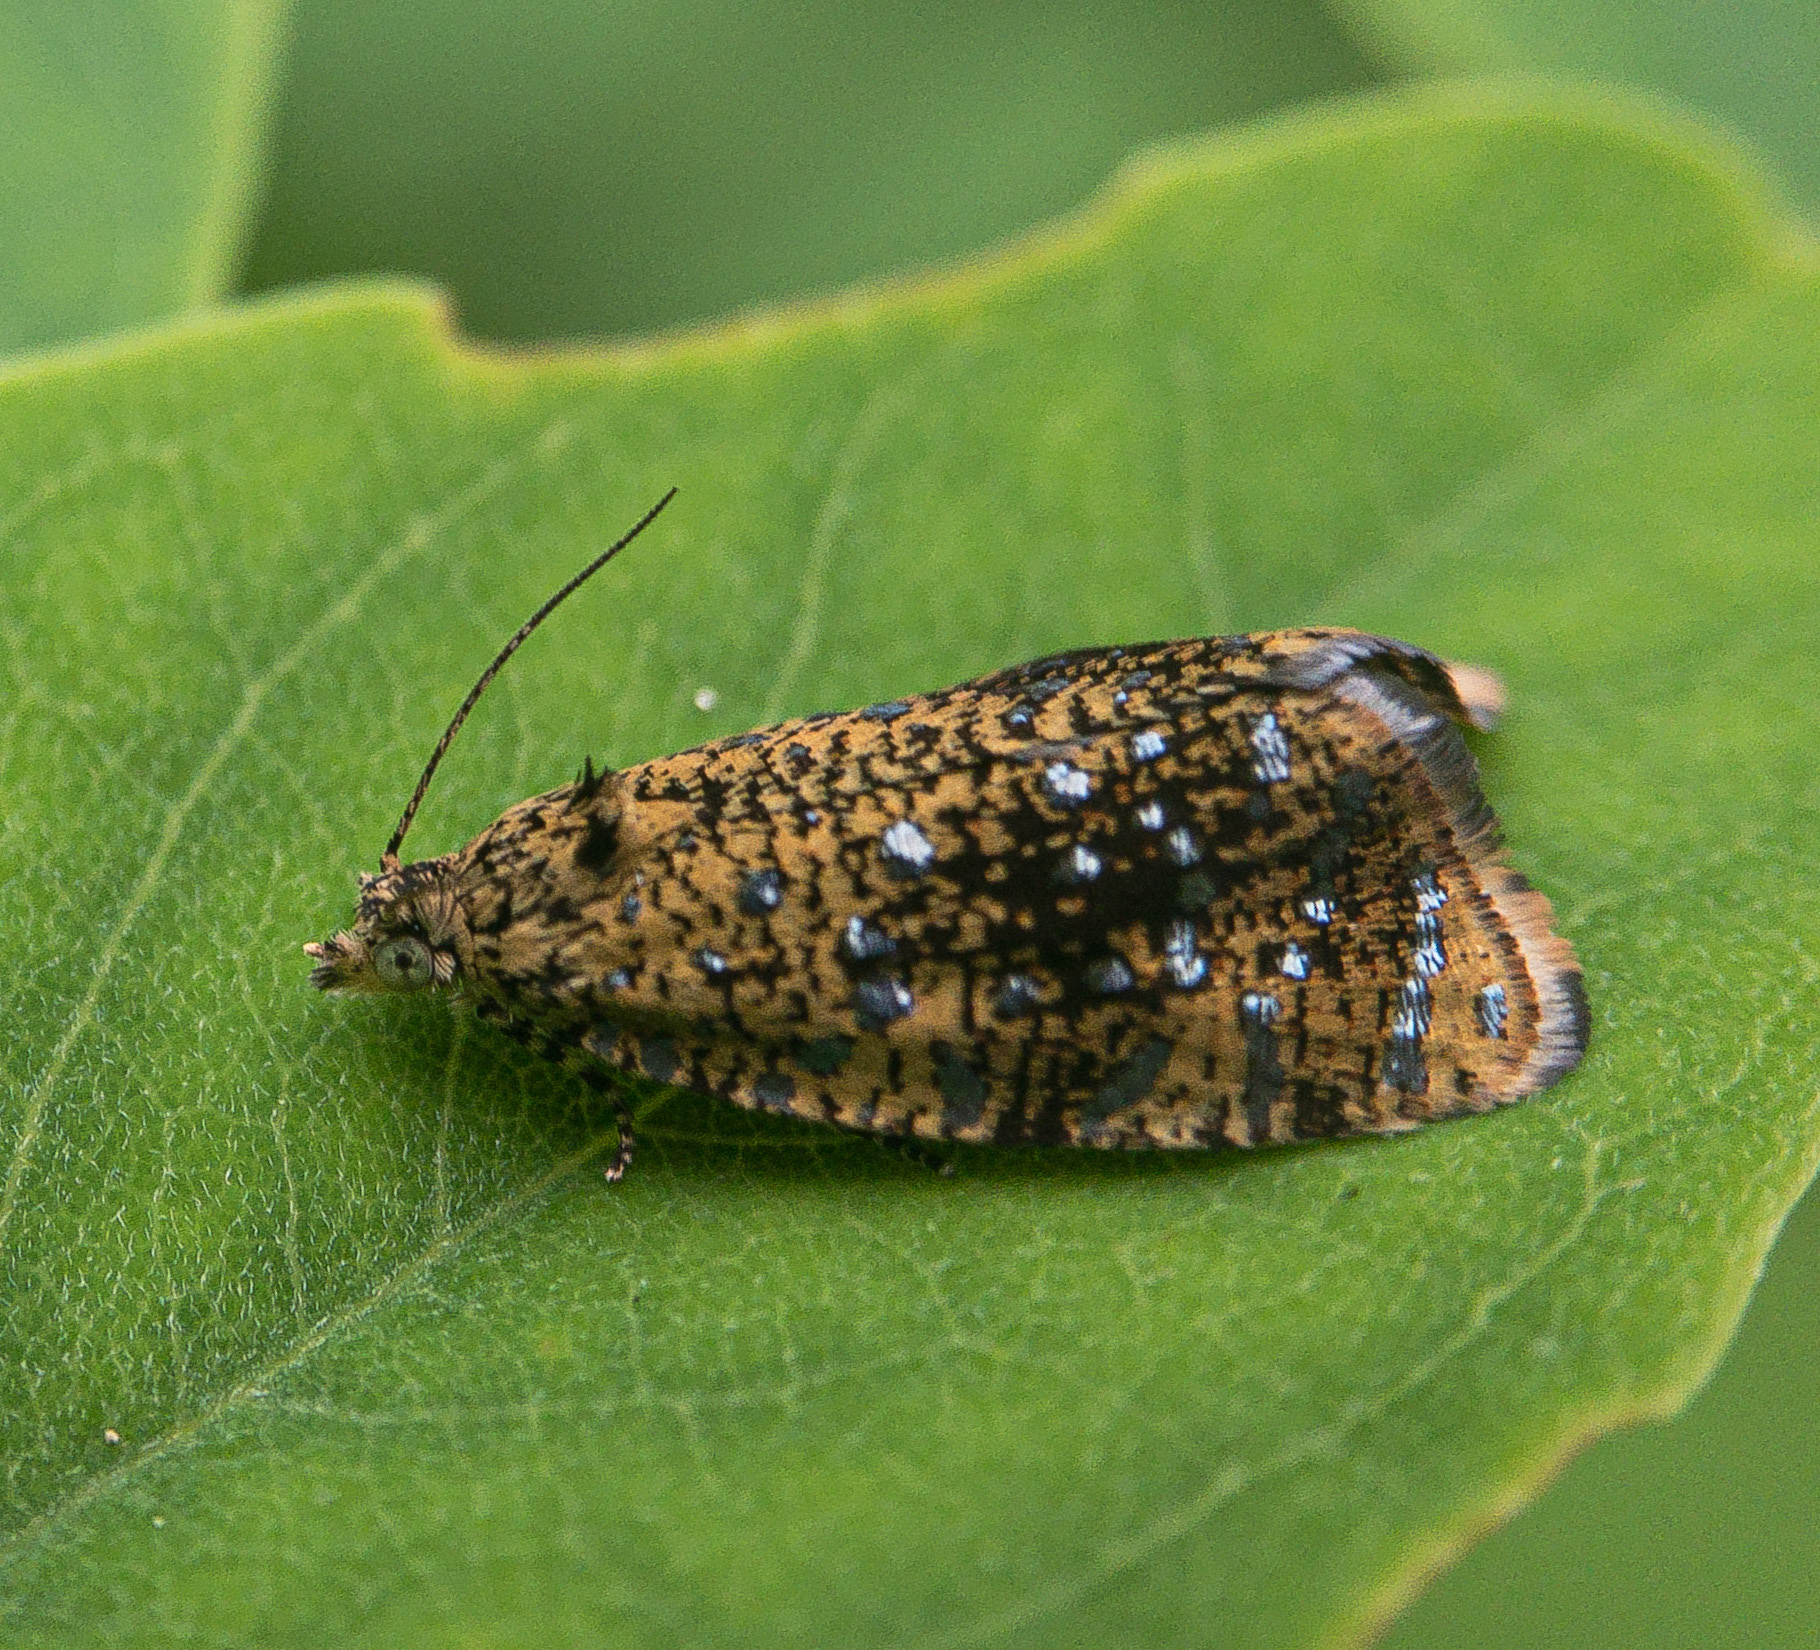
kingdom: Animalia
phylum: Arthropoda
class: Insecta
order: Lepidoptera
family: Tortricidae
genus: Olethreutes
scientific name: Olethreutes astrologana
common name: Astronomer moth
